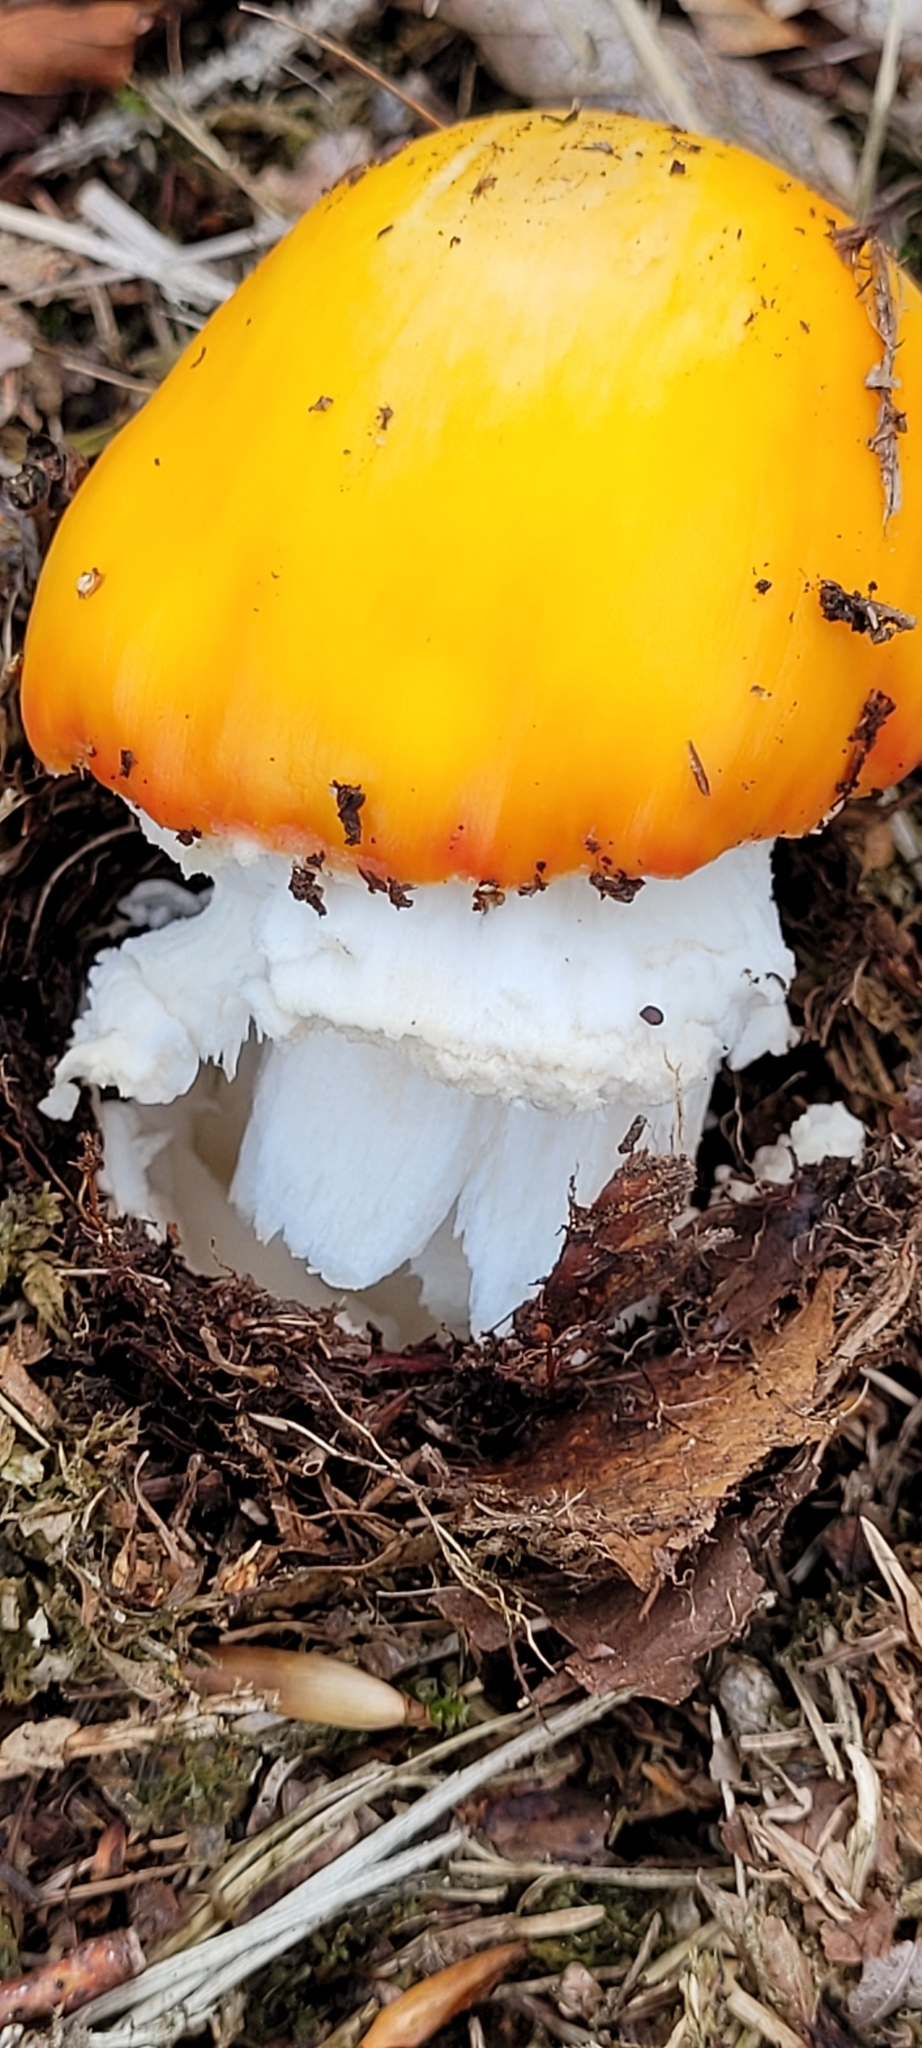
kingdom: Fungi
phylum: Basidiomycota
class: Agaricomycetes
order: Agaricales
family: Amanitaceae
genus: Amanita
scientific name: Amanita muscaria
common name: Fly agaric
